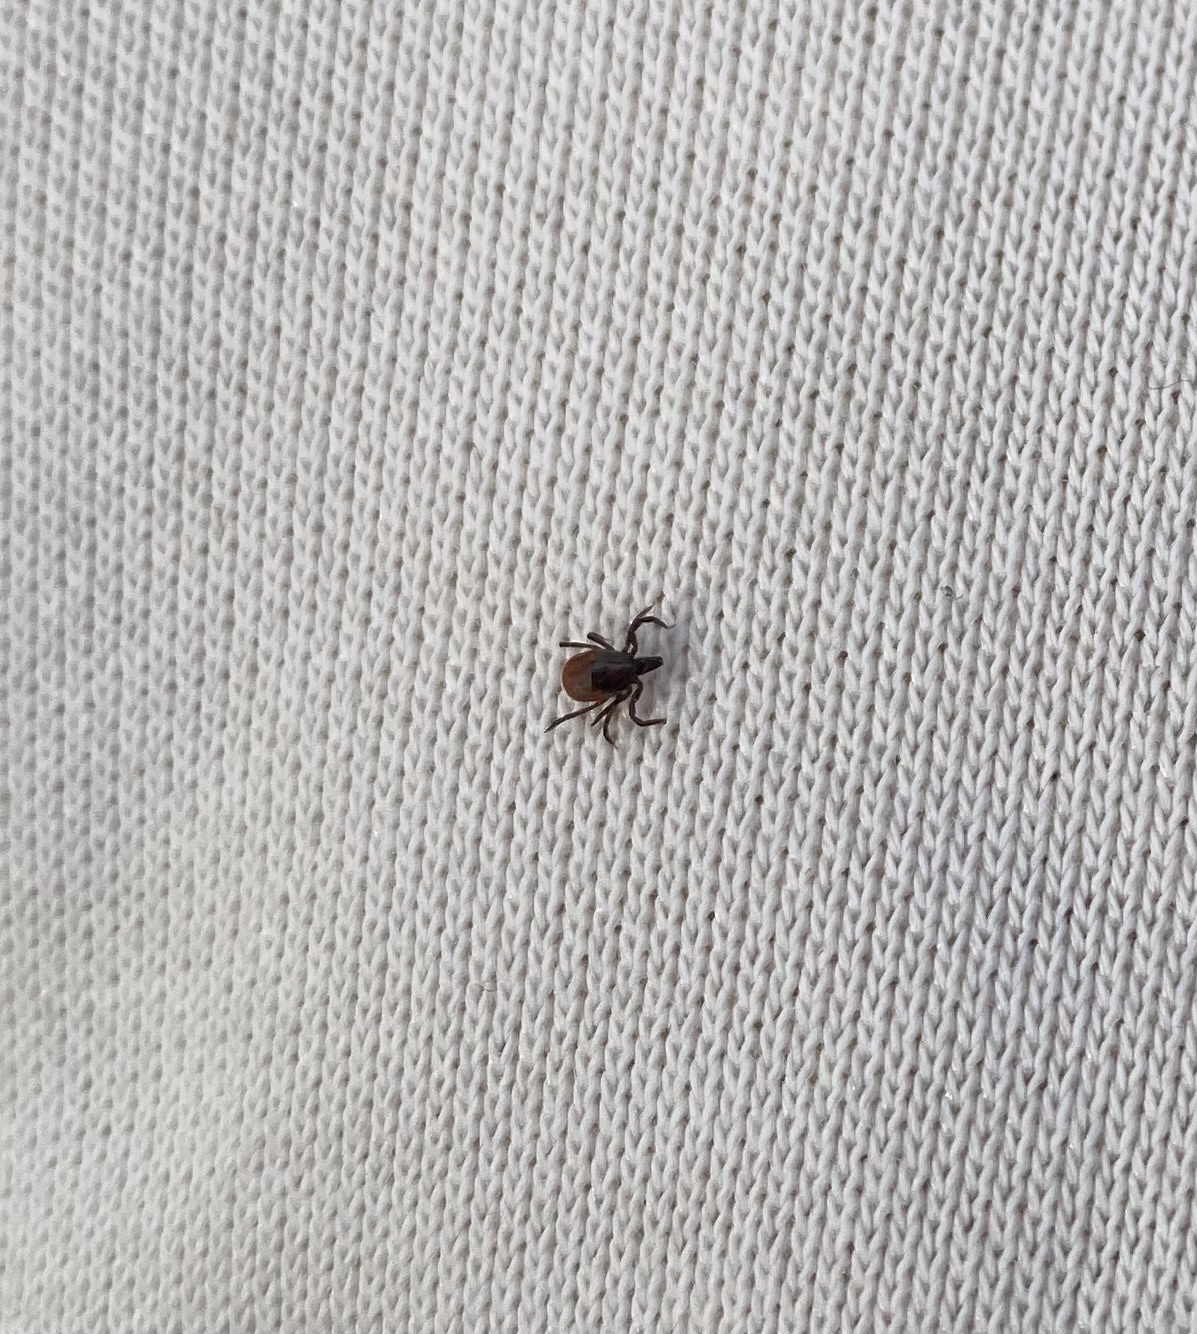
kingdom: Animalia
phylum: Arthropoda
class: Arachnida
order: Ixodida
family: Ixodidae
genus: Ixodes
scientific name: Ixodes ricinus
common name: Castor bean tick
